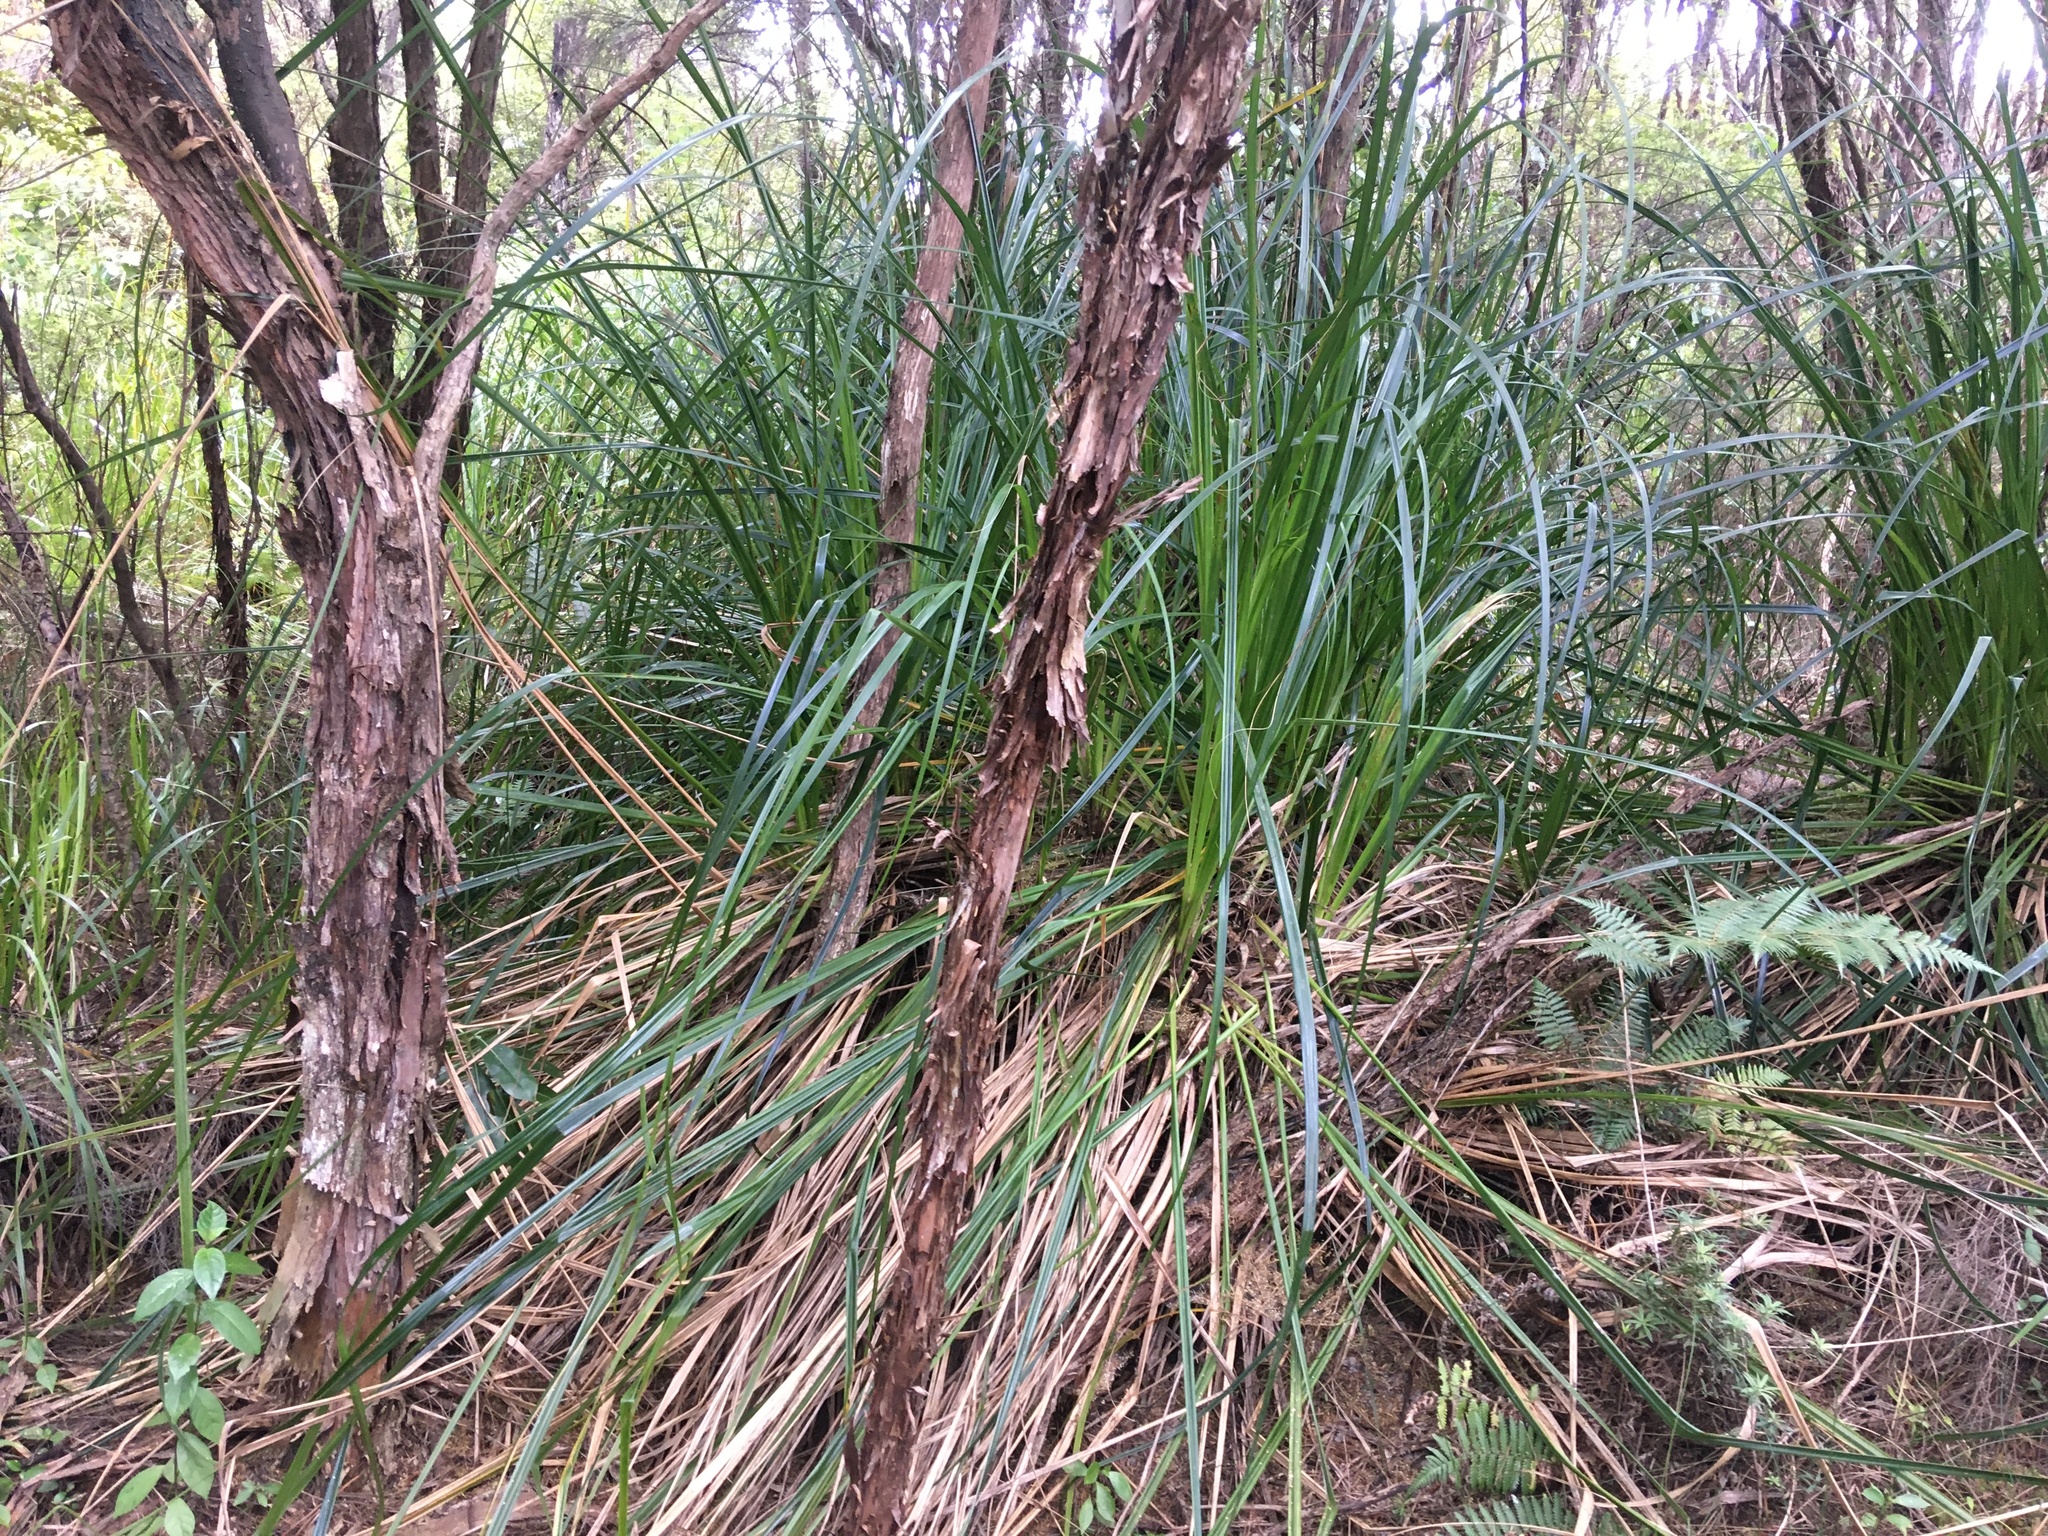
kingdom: Plantae
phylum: Tracheophyta
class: Liliopsida
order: Poales
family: Cyperaceae
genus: Gahnia
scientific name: Gahnia xanthocarpa
